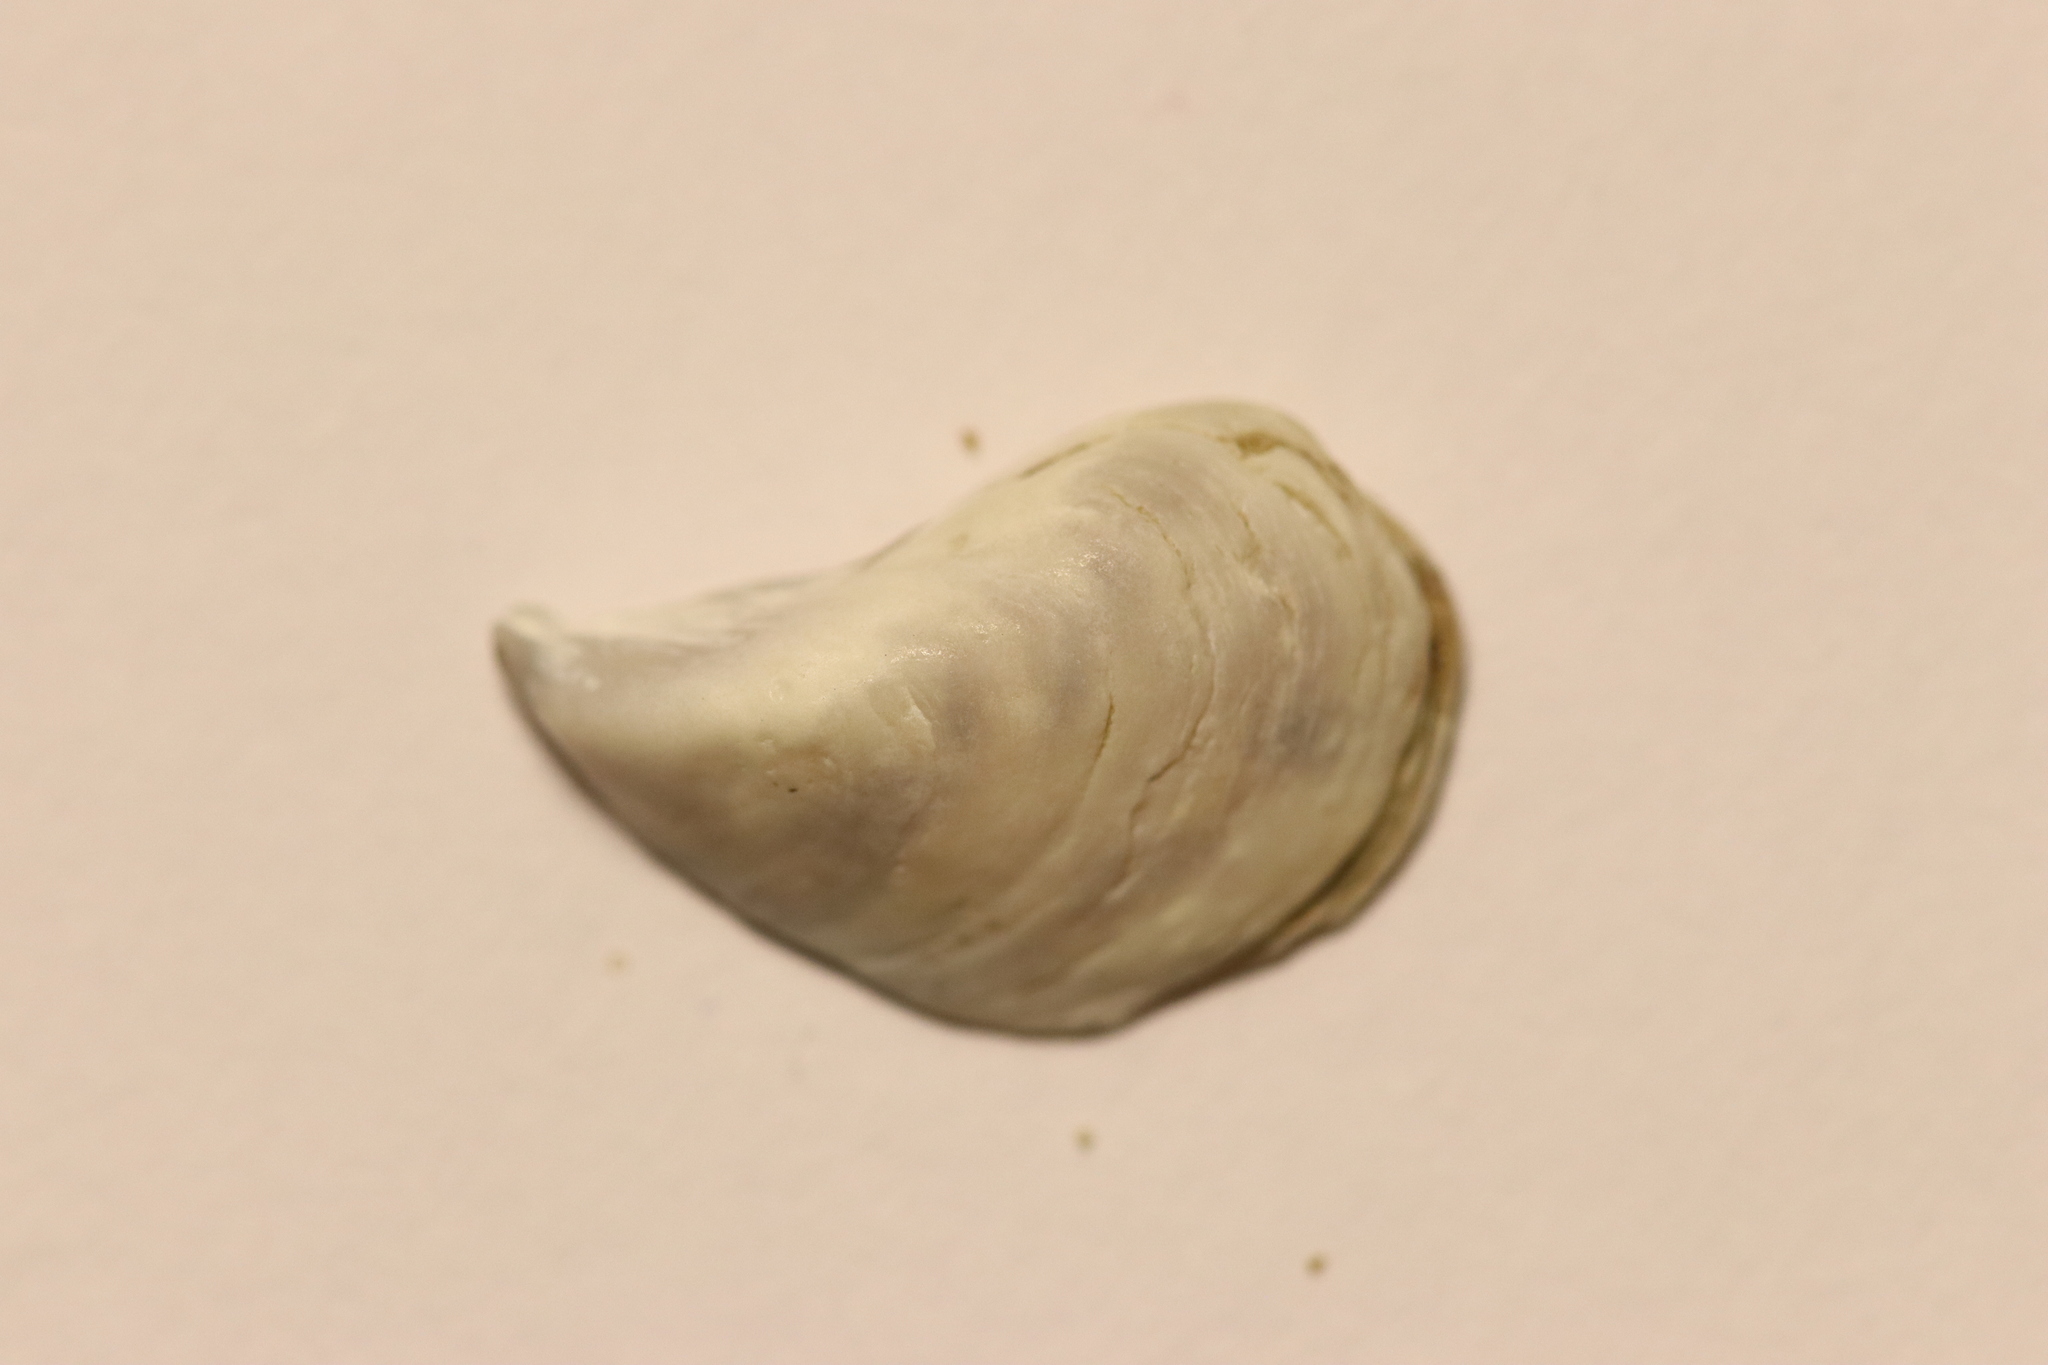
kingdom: Animalia
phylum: Mollusca
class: Bivalvia
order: Myida
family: Dreissenidae
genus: Dreissena
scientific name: Dreissena bugensis
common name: Quagga mussel
